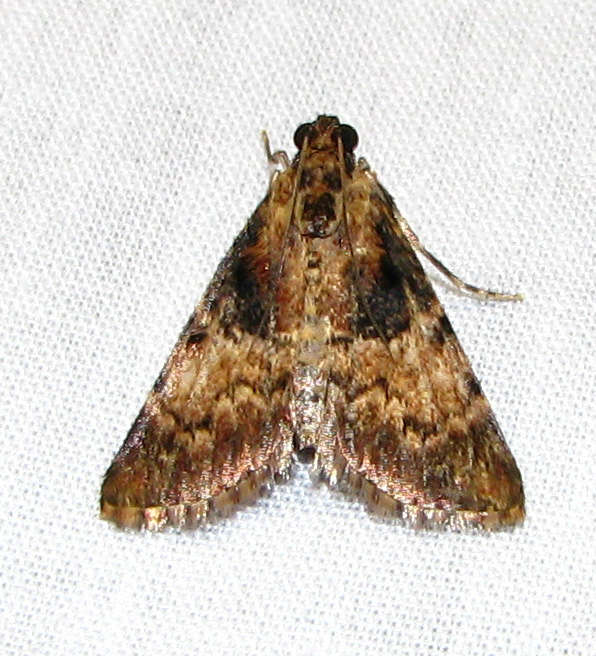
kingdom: Animalia
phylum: Arthropoda
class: Insecta
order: Lepidoptera
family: Pyralidae
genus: Orthaga
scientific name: Orthaga thyrisalis
